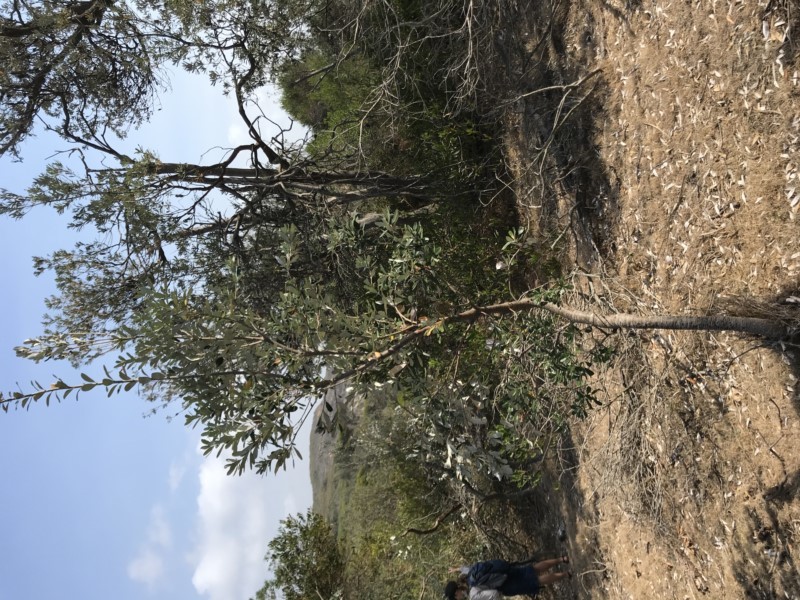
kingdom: Plantae
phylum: Tracheophyta
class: Magnoliopsida
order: Proteales
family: Proteaceae
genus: Banksia
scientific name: Banksia integrifolia
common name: White-honeysuckle
